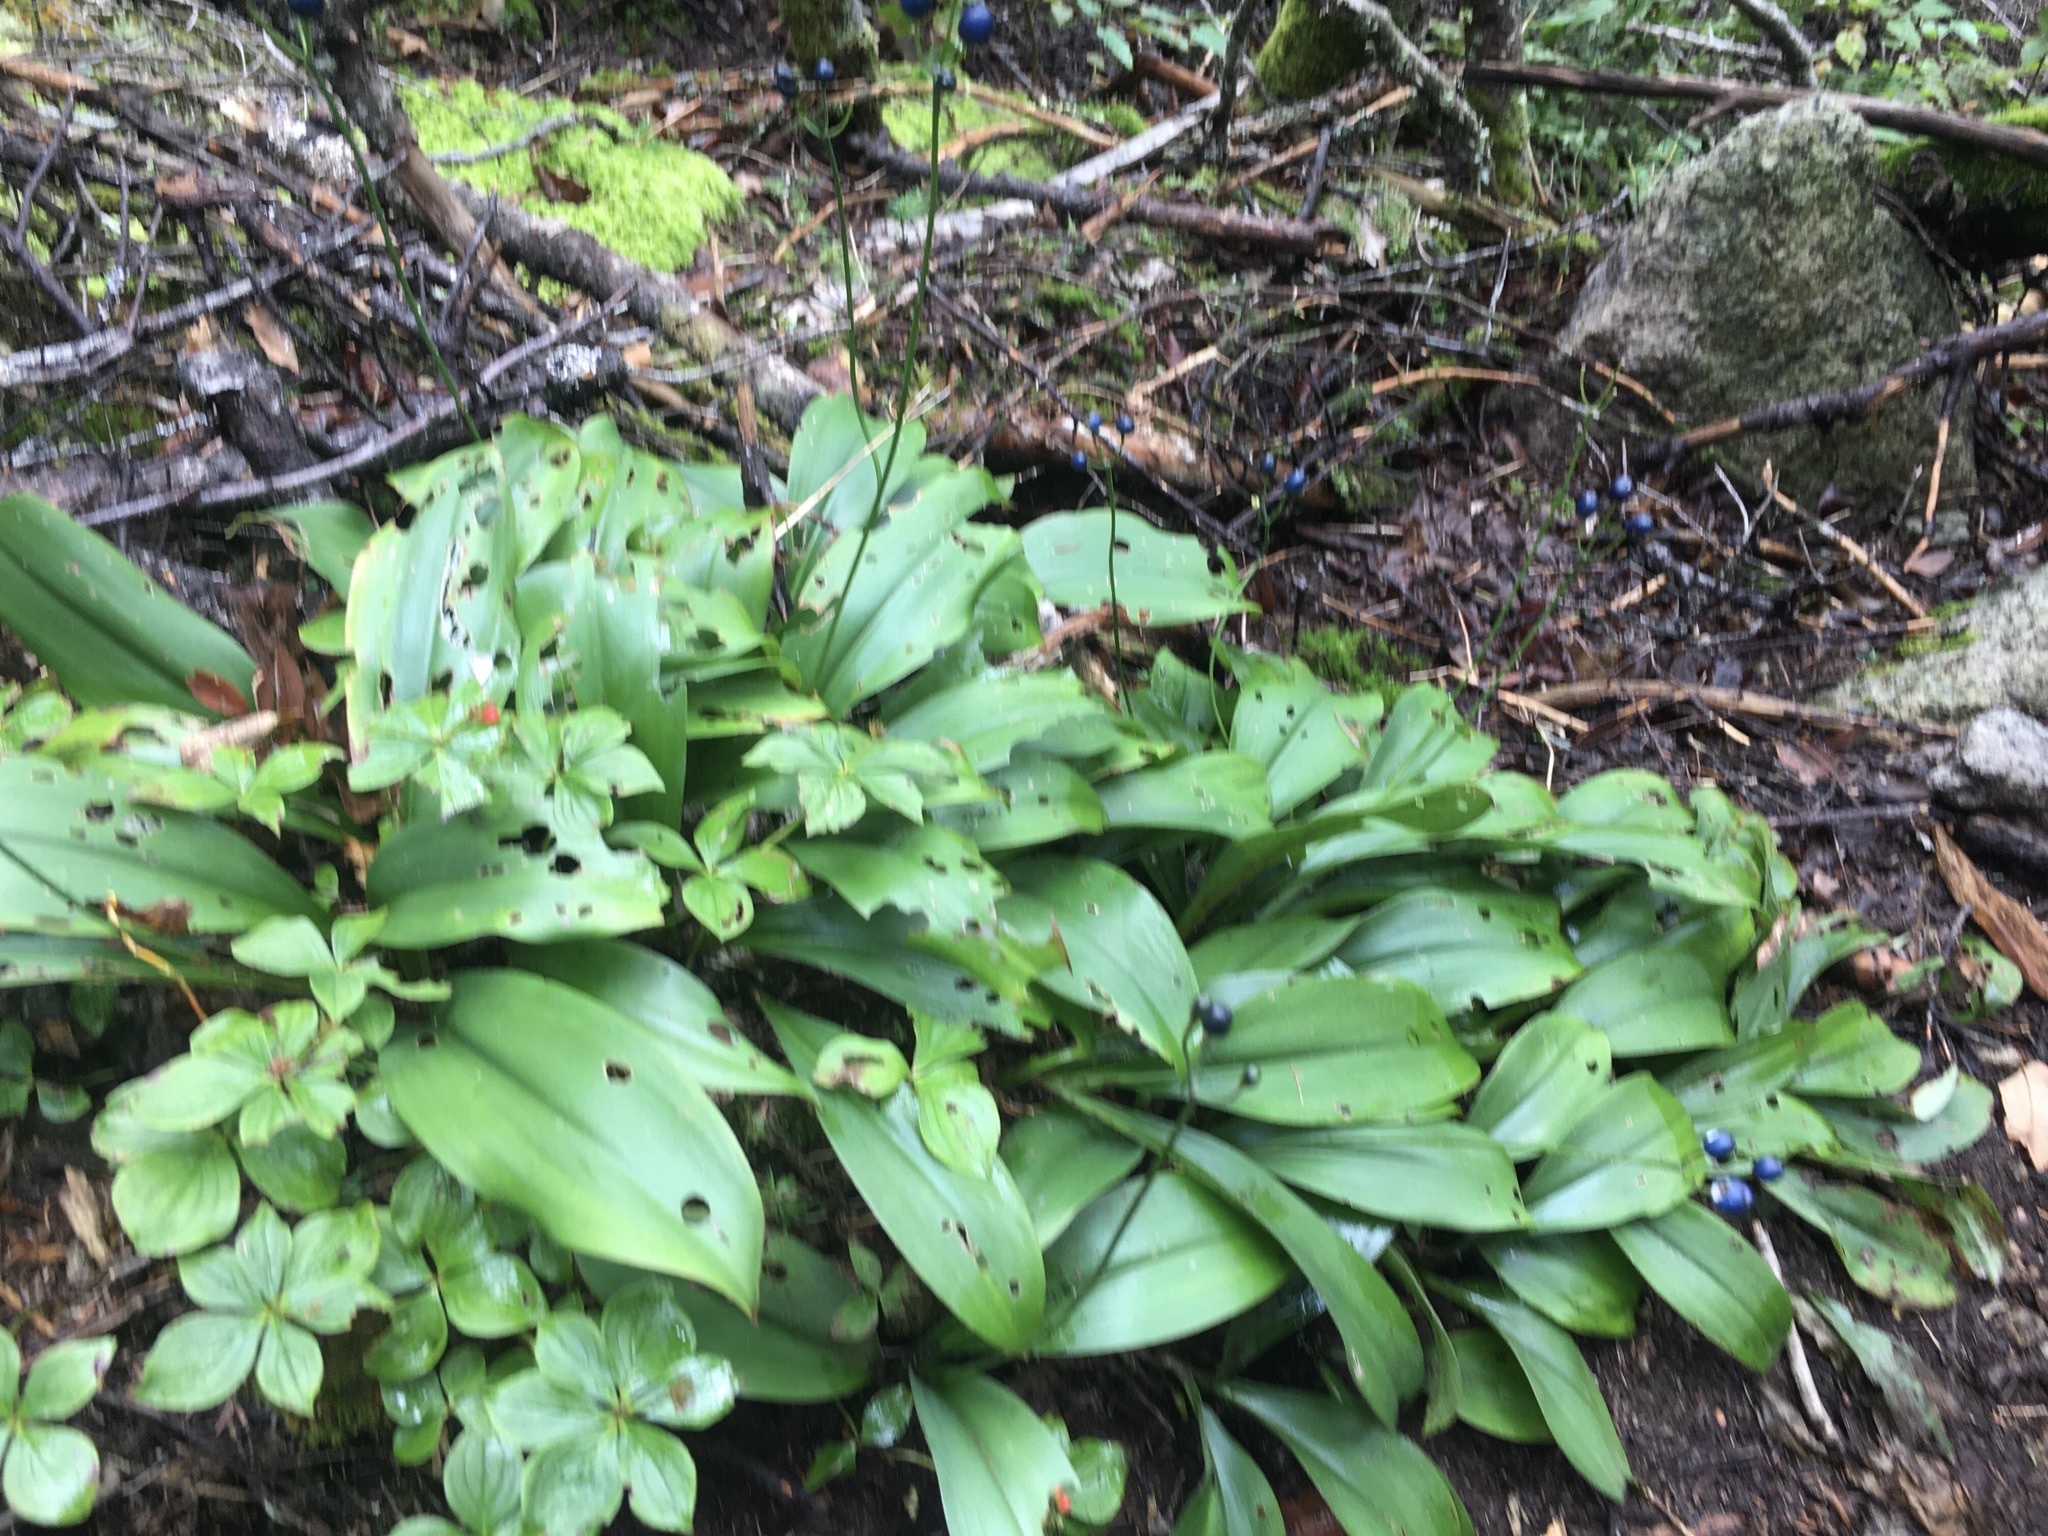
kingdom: Plantae
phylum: Tracheophyta
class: Liliopsida
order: Liliales
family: Liliaceae
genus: Clintonia
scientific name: Clintonia borealis
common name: Yellow clintonia
